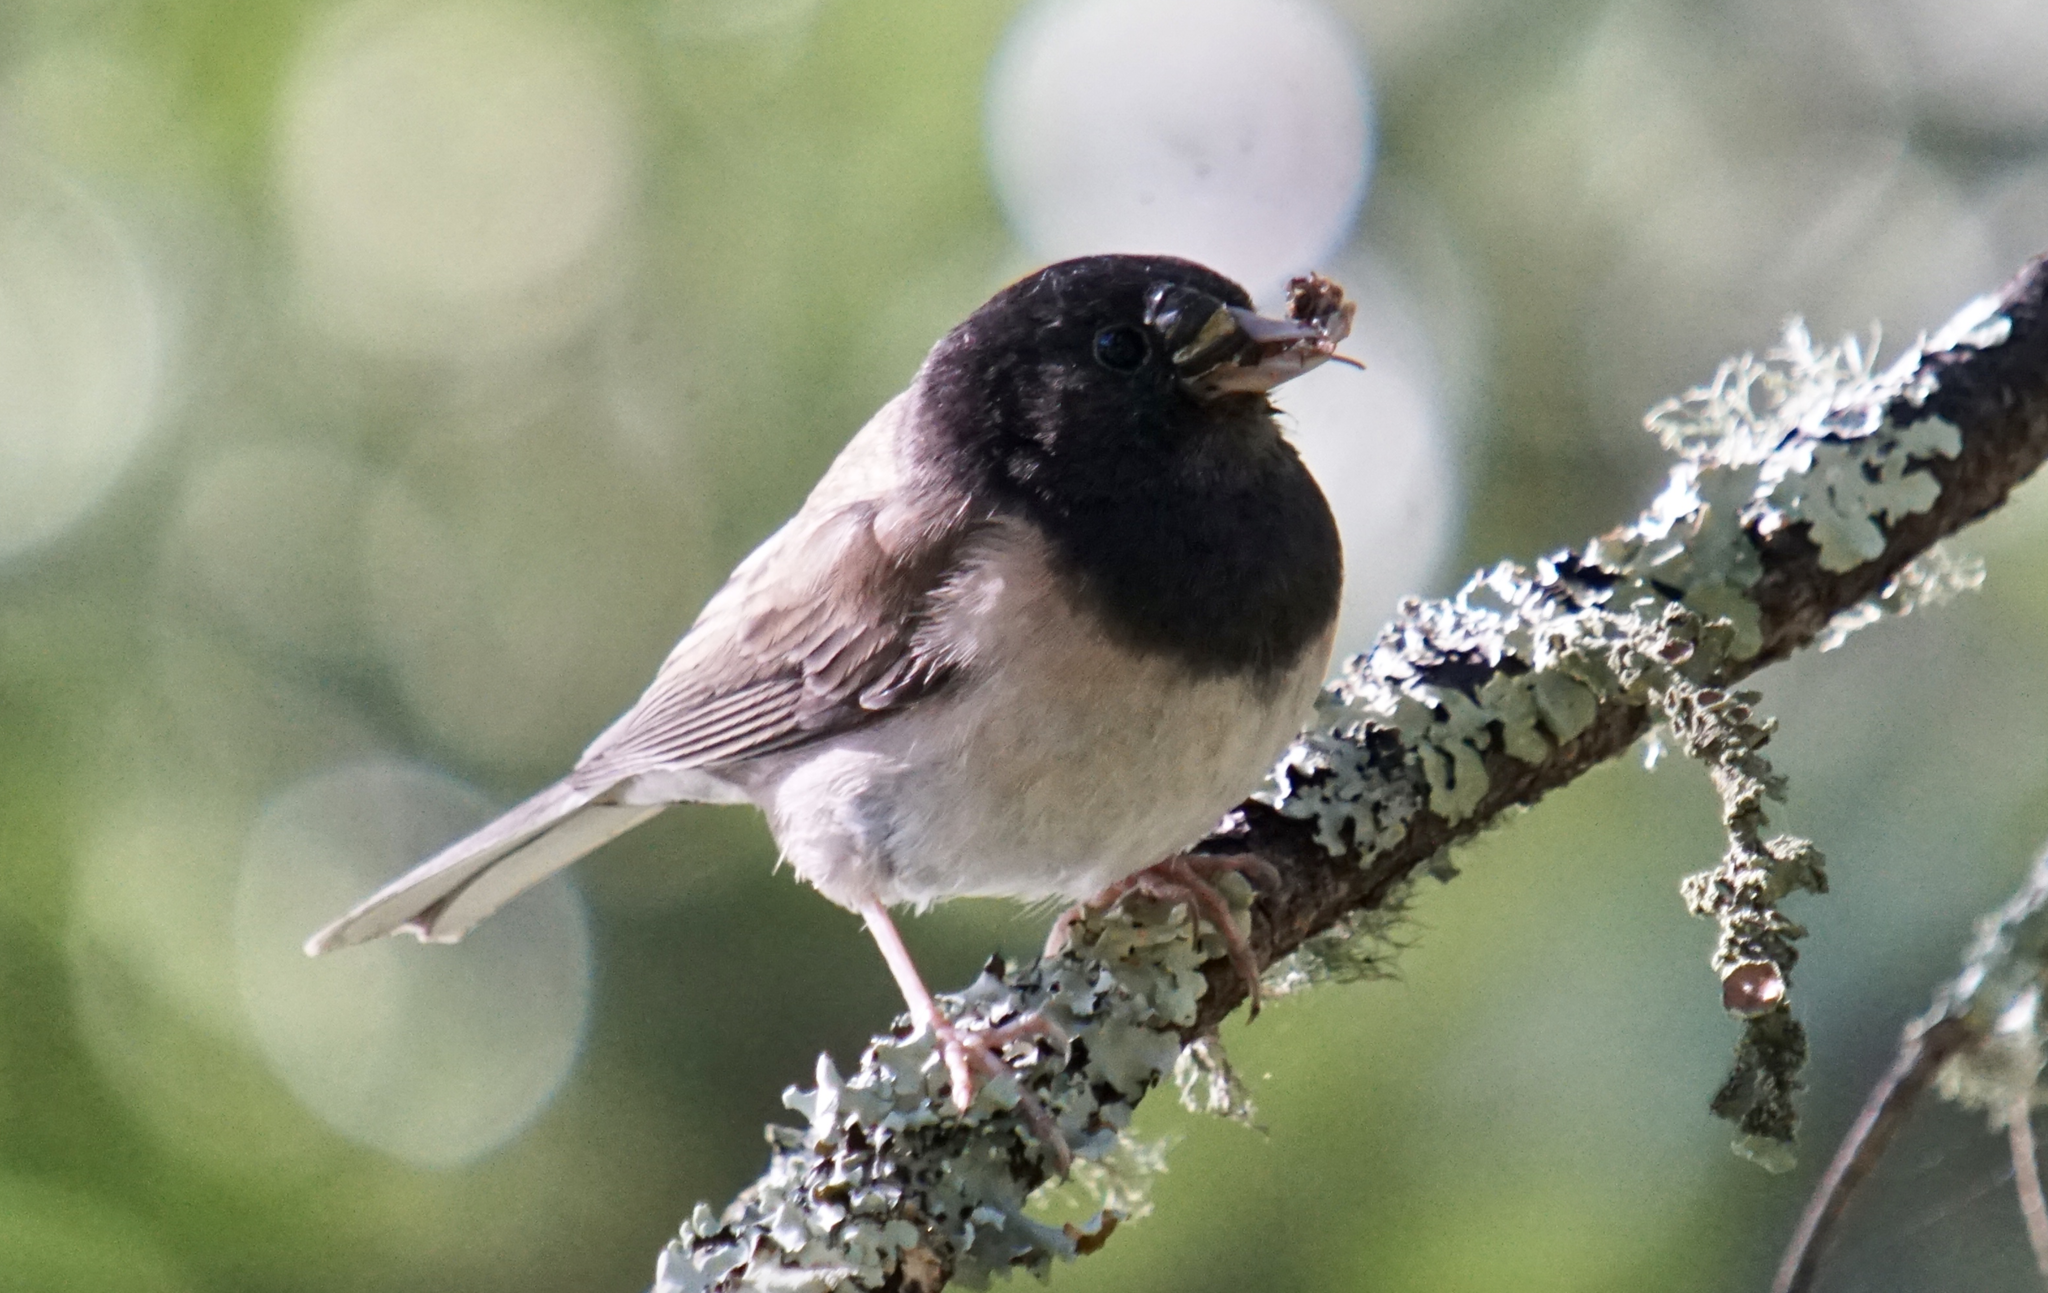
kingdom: Animalia
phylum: Chordata
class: Aves
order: Passeriformes
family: Passerellidae
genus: Junco
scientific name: Junco hyemalis
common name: Dark-eyed junco
